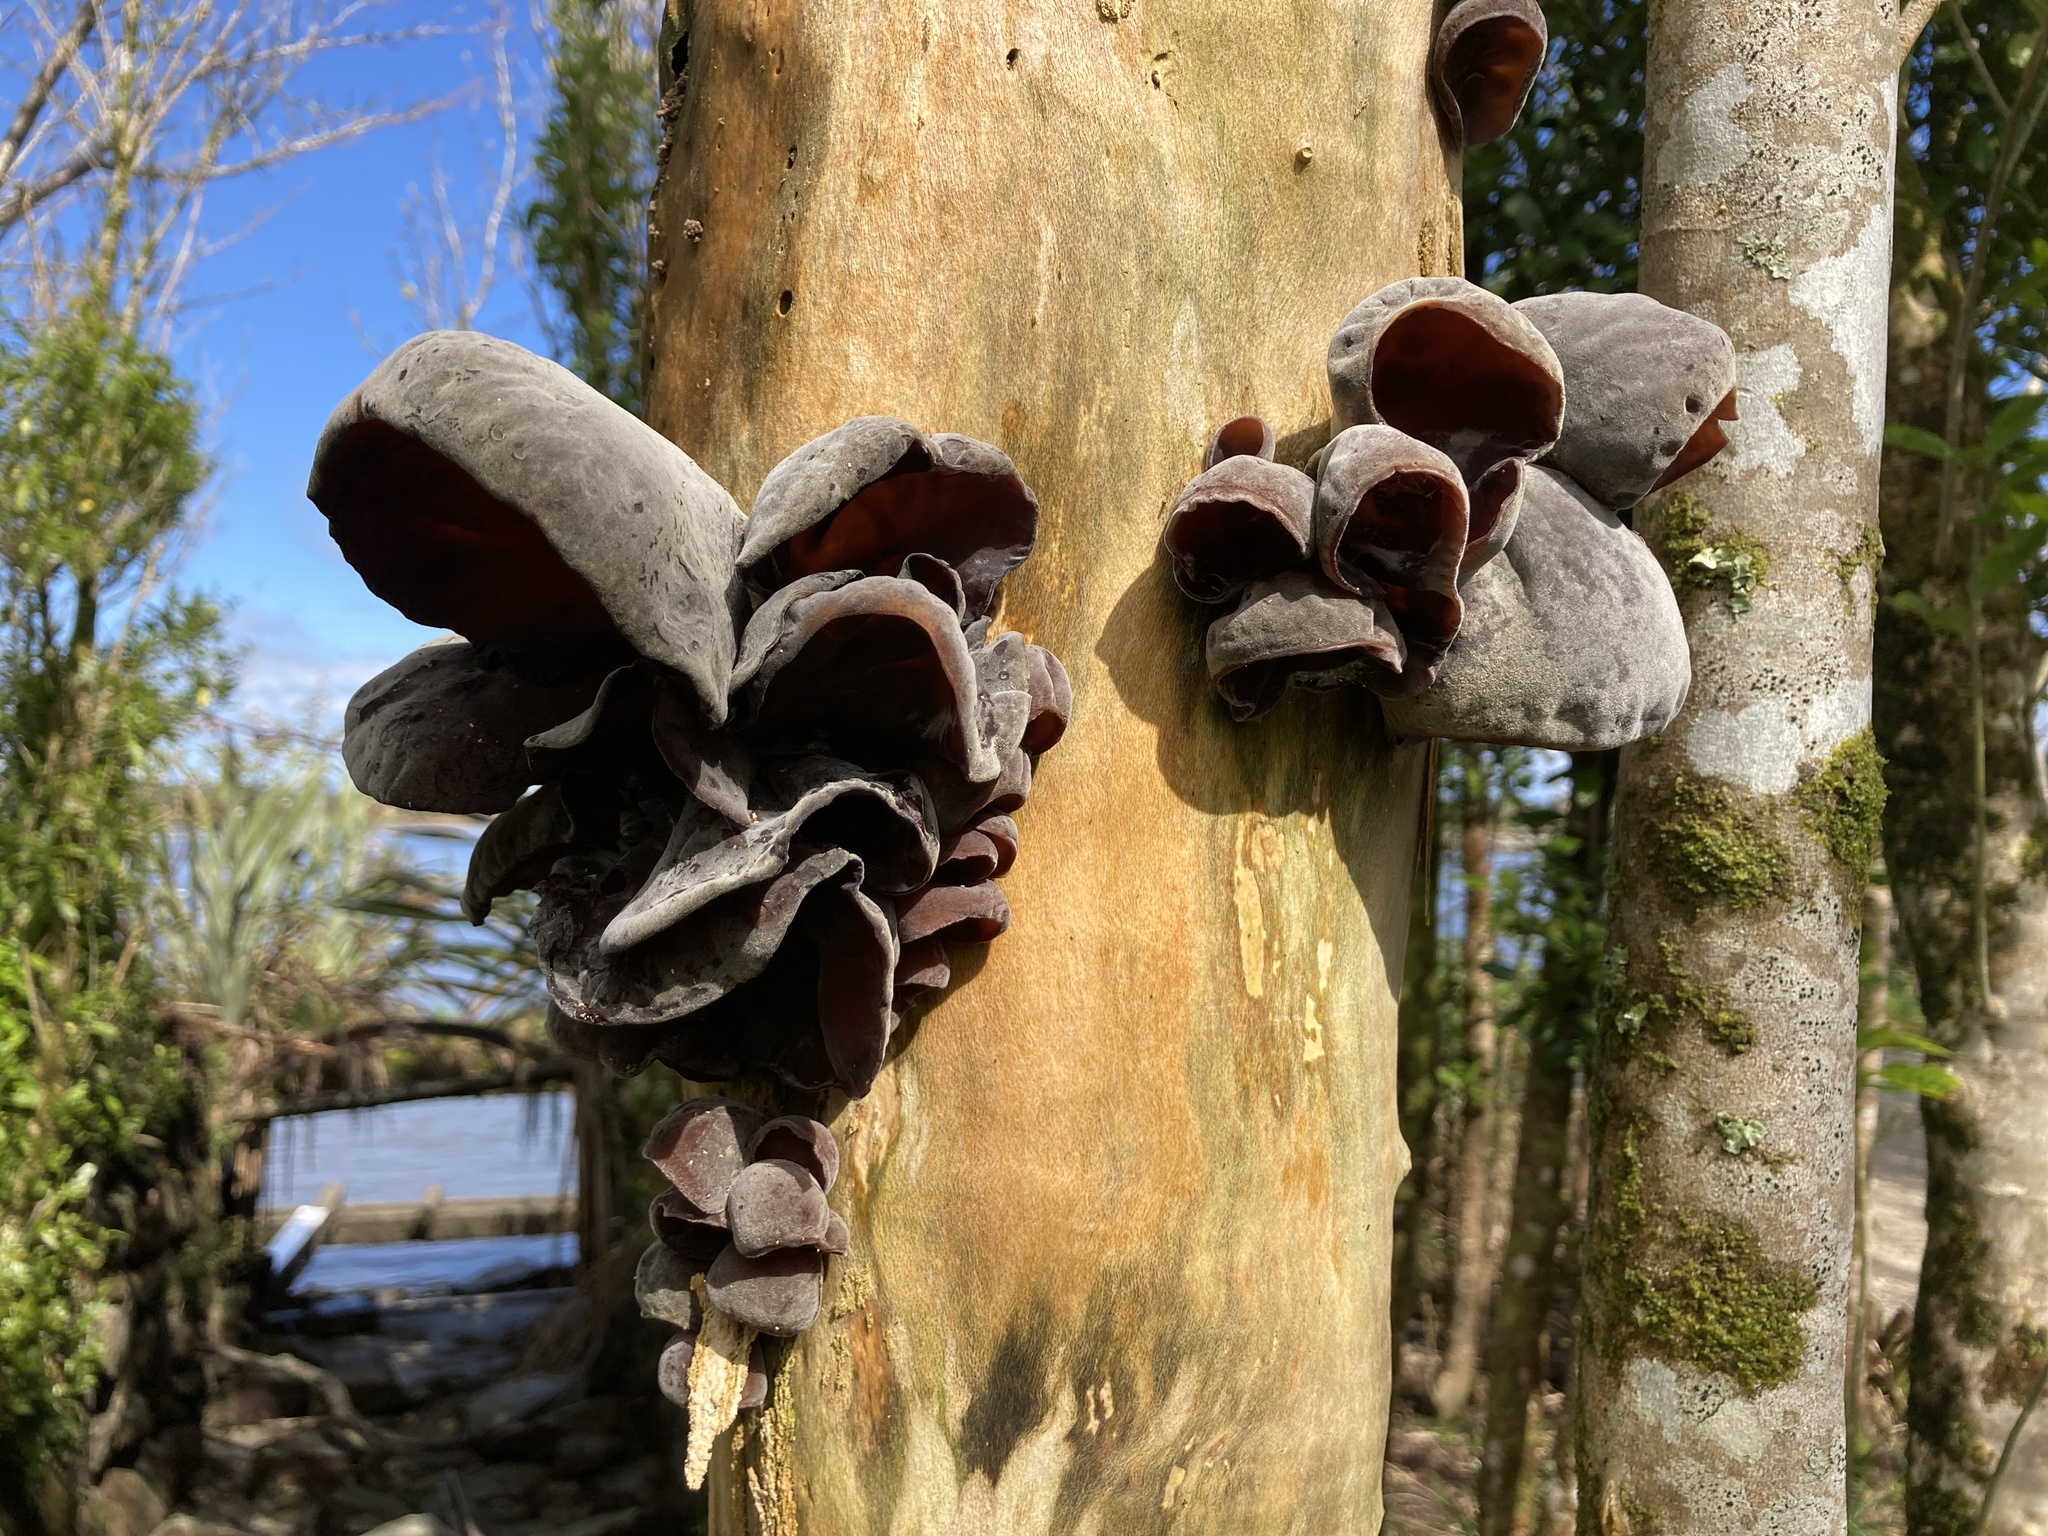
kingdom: Fungi
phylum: Basidiomycota
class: Agaricomycetes
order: Auriculariales
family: Auriculariaceae
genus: Auricularia
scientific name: Auricularia cornea
